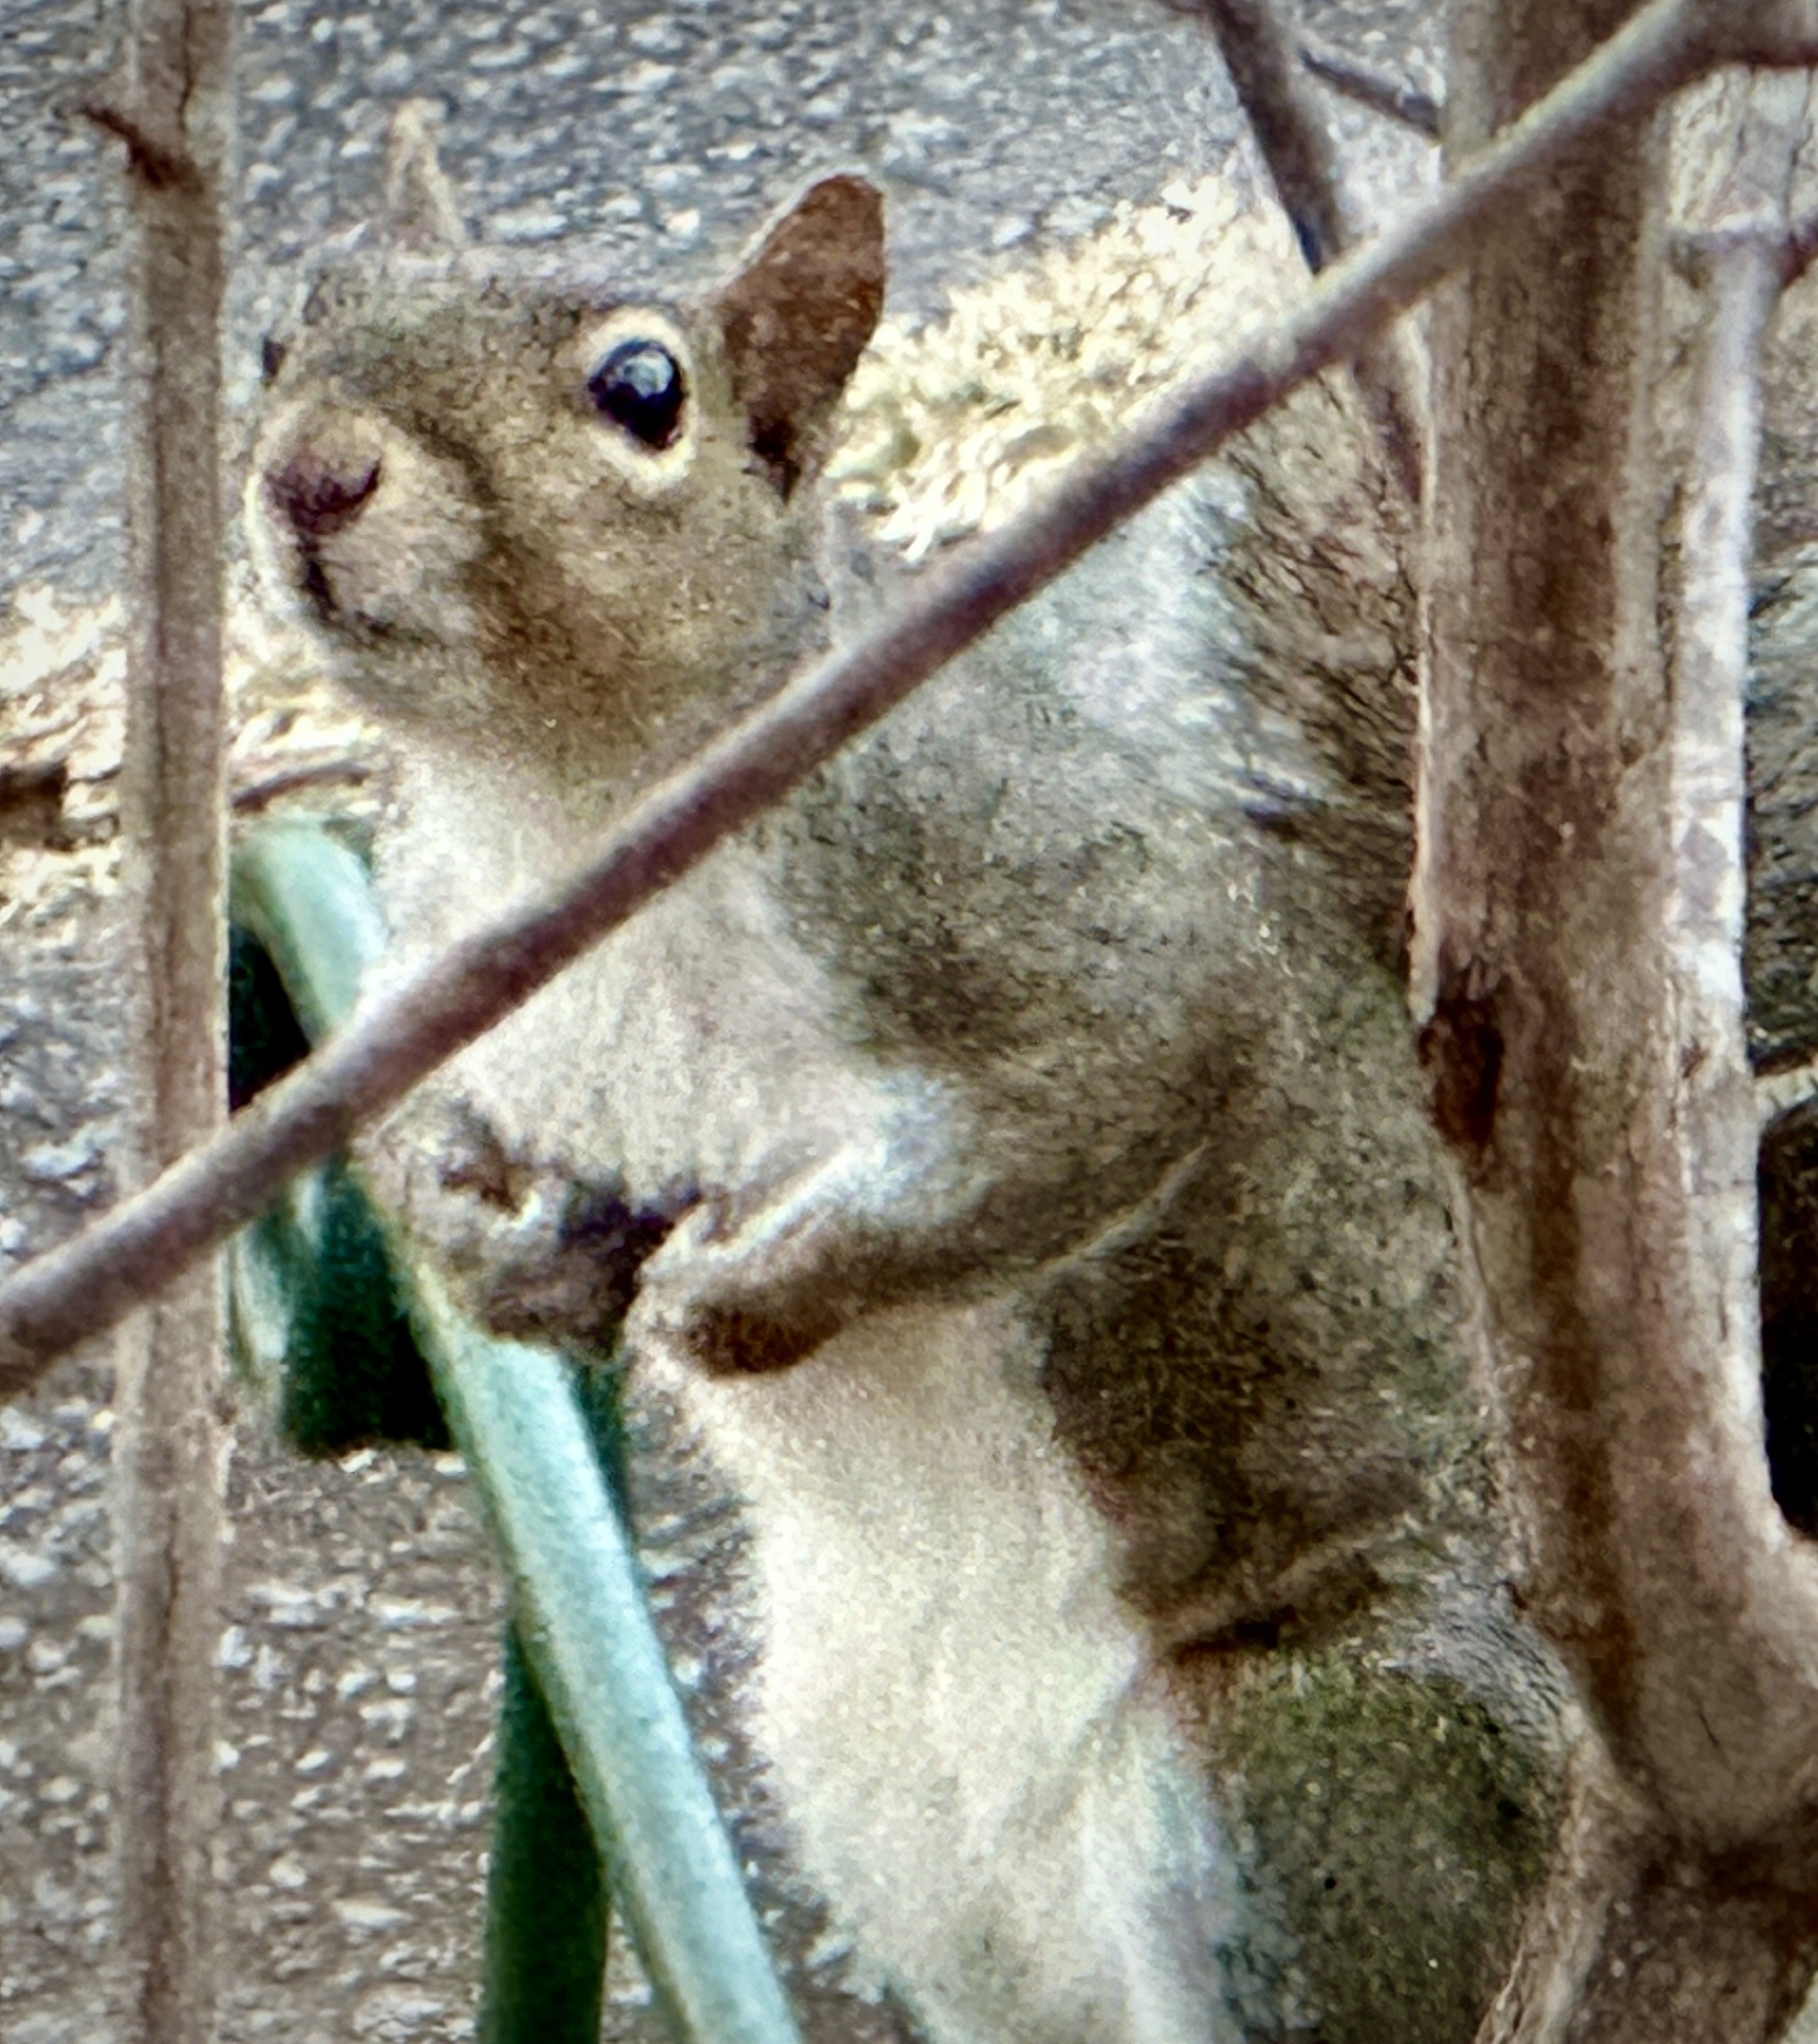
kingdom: Animalia
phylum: Chordata
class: Mammalia
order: Rodentia
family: Sciuridae
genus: Sciurus
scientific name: Sciurus carolinensis
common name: Eastern gray squirrel
